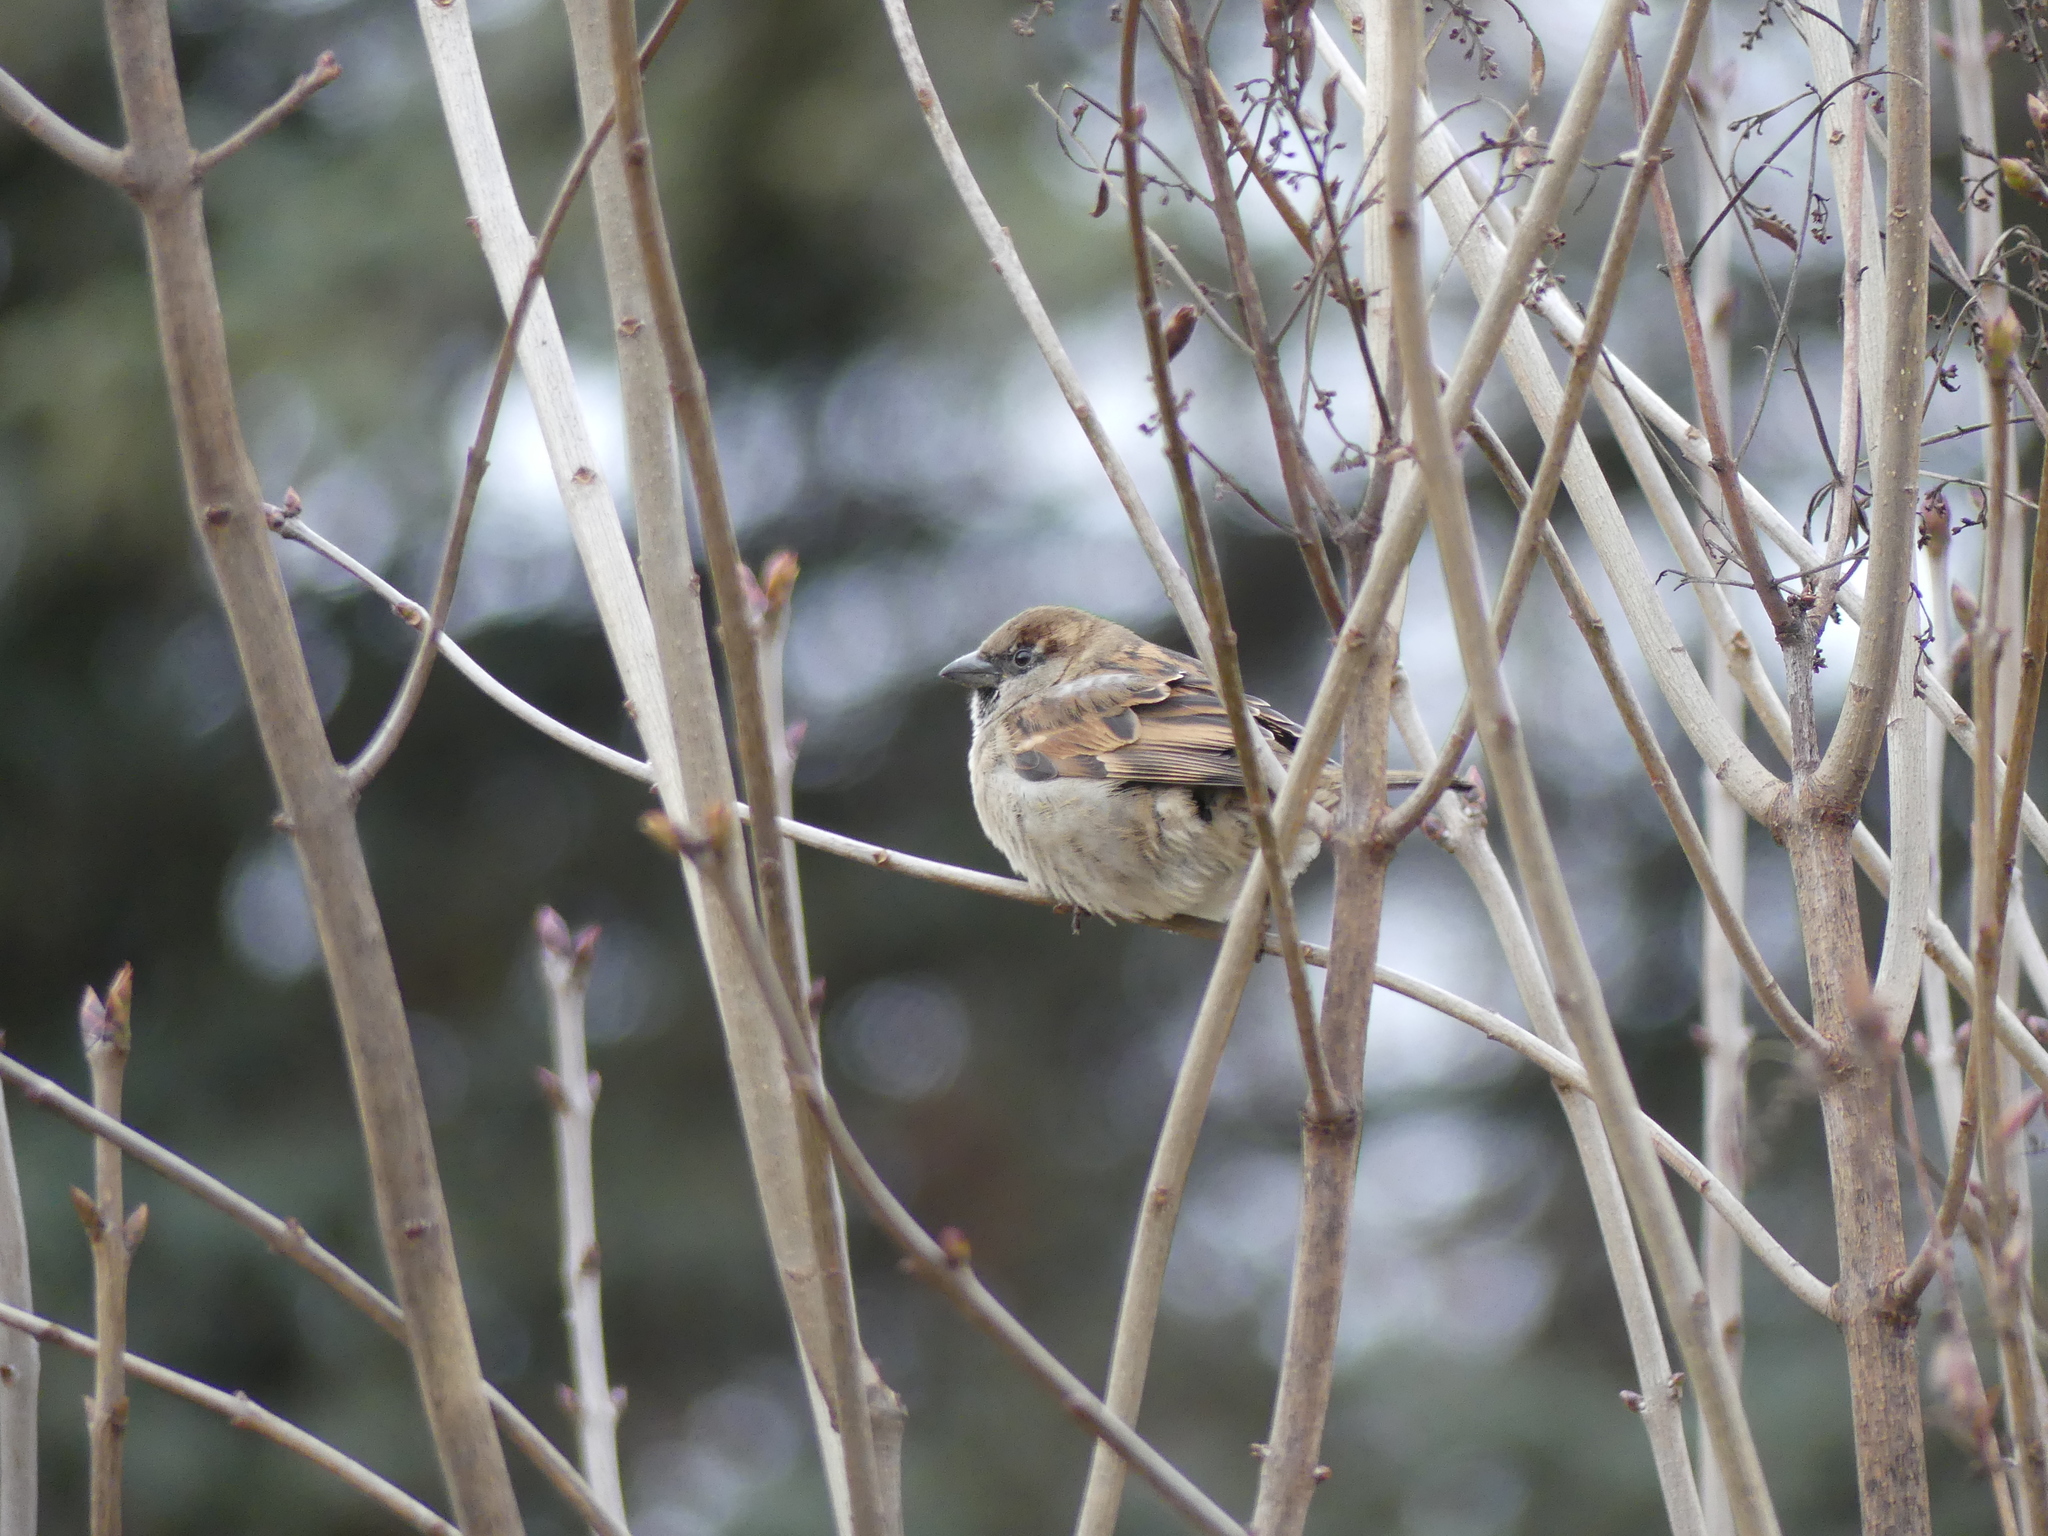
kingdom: Animalia
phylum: Chordata
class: Aves
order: Passeriformes
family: Passeridae
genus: Passer
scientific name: Passer domesticus
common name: House sparrow
